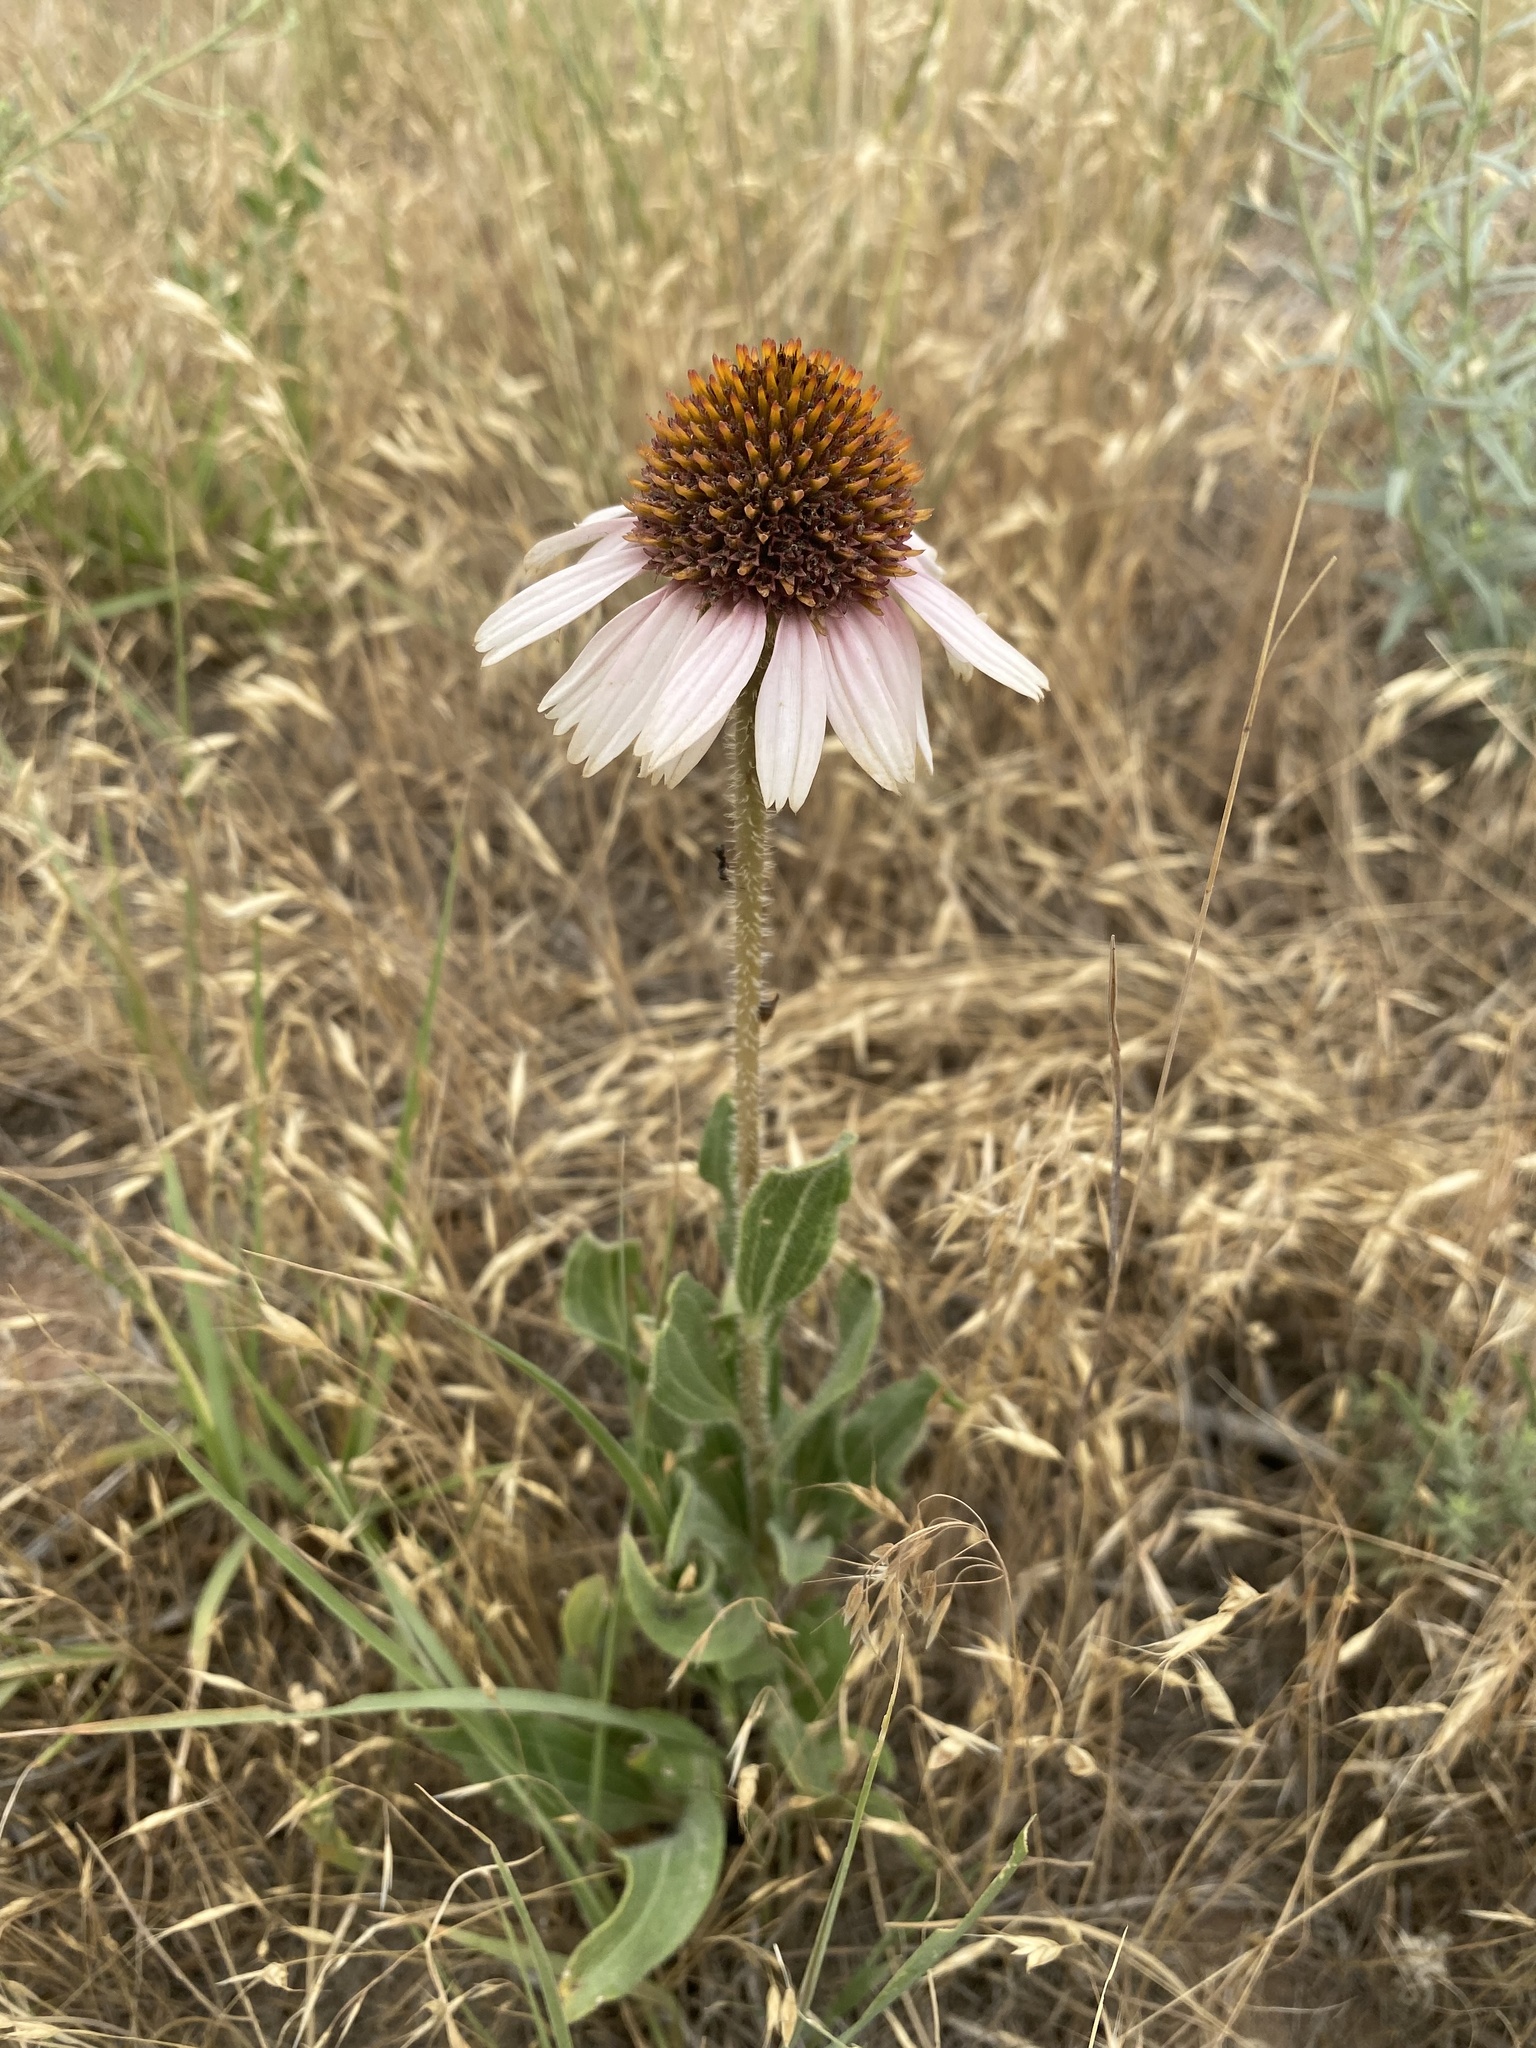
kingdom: Plantae
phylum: Tracheophyta
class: Magnoliopsida
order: Asterales
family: Asteraceae
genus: Echinacea
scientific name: Echinacea angustifolia
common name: Black-sampson echinacea
